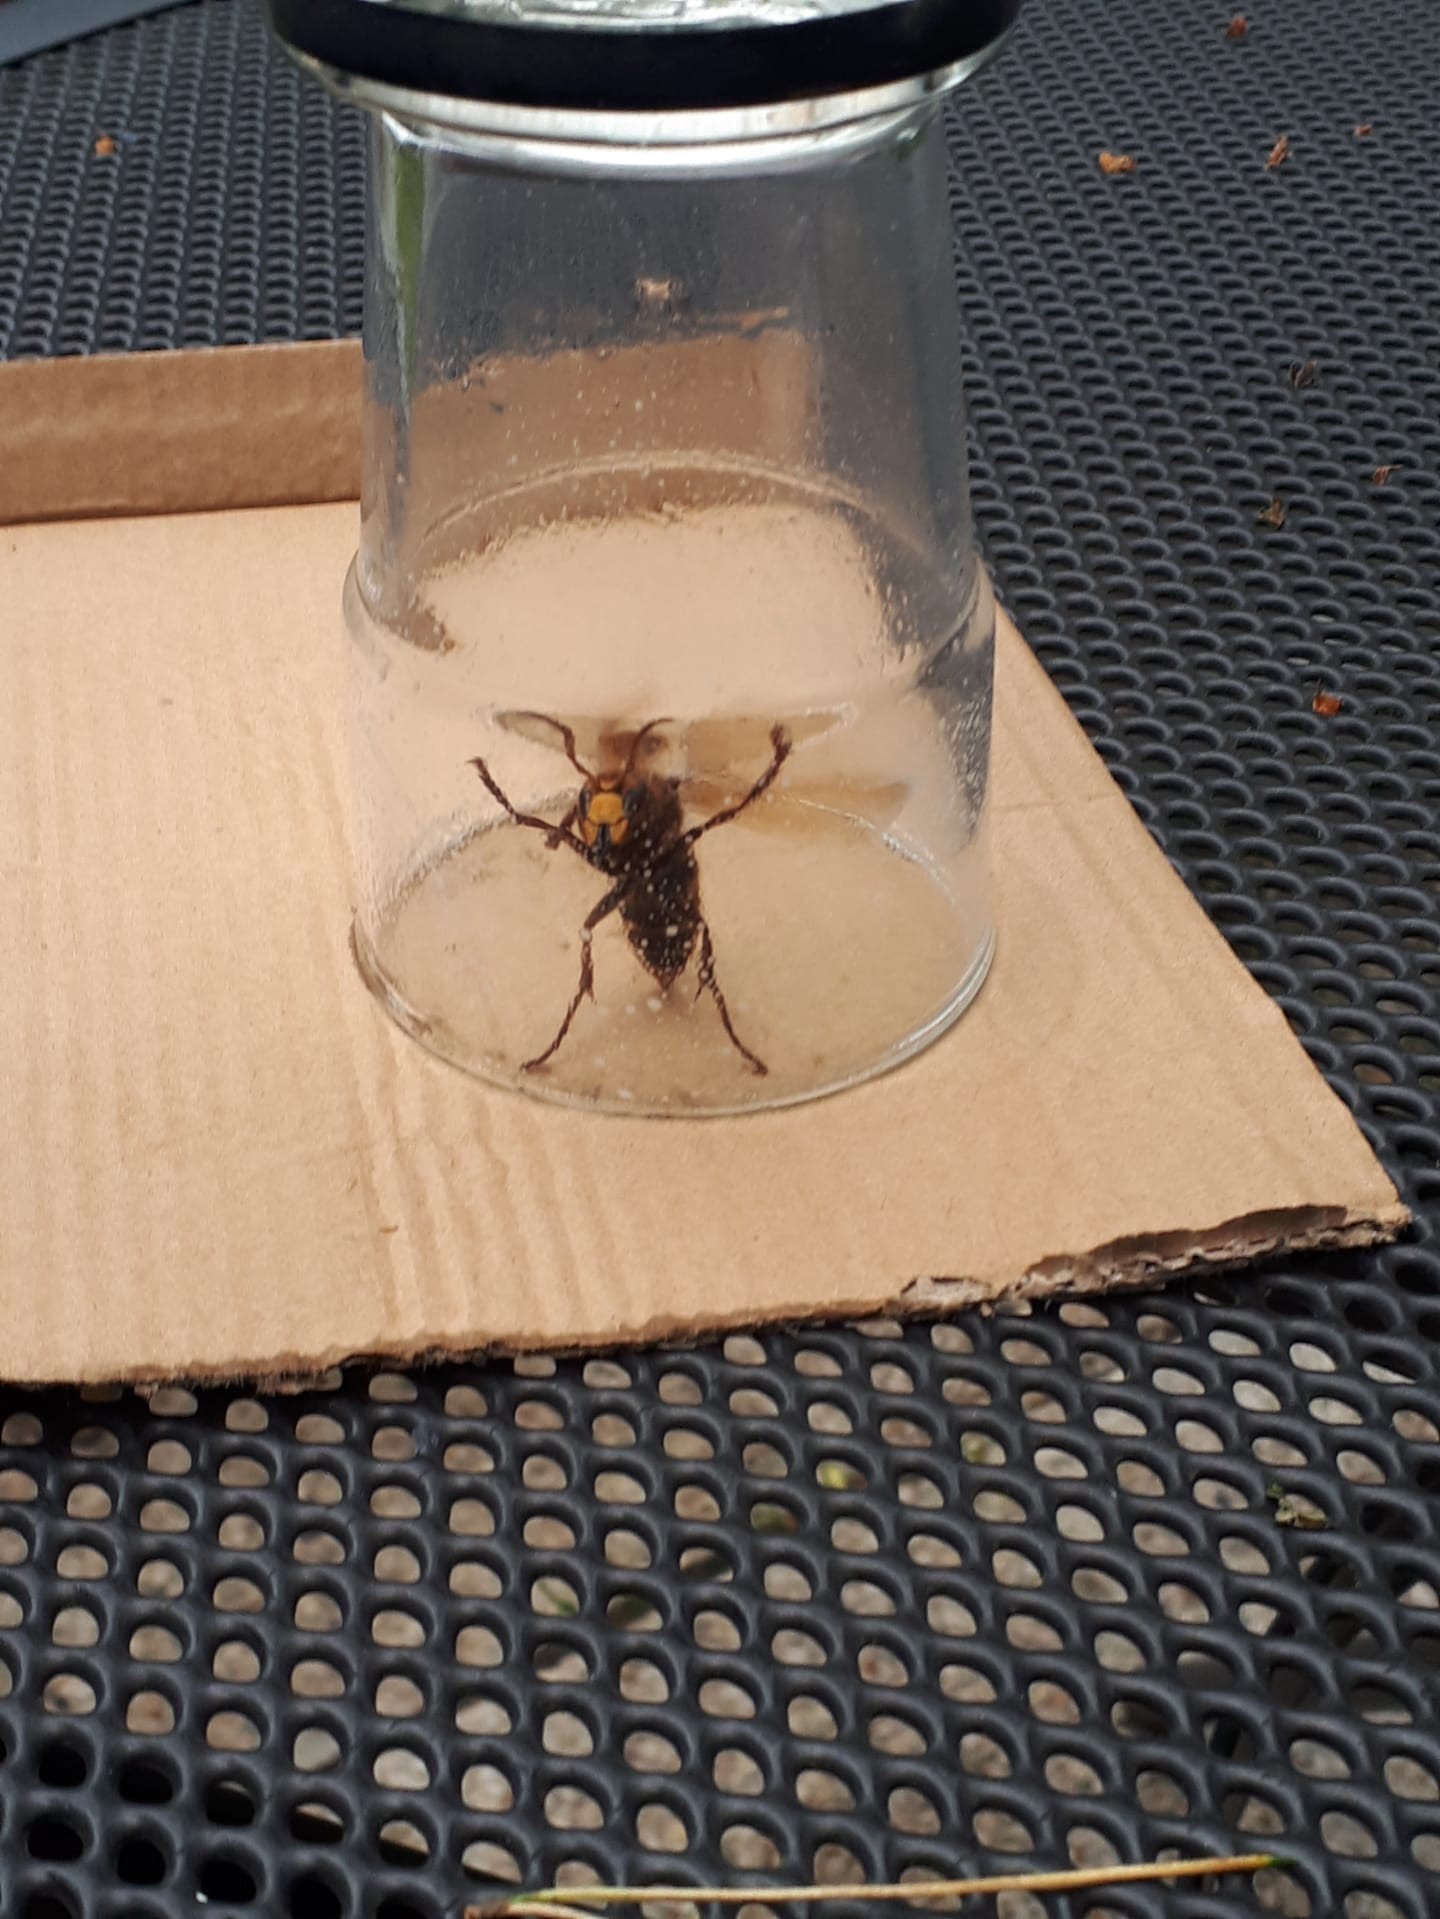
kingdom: Animalia
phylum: Arthropoda
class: Insecta
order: Hymenoptera
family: Vespidae
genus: Vespa
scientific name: Vespa crabro
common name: Hornet
